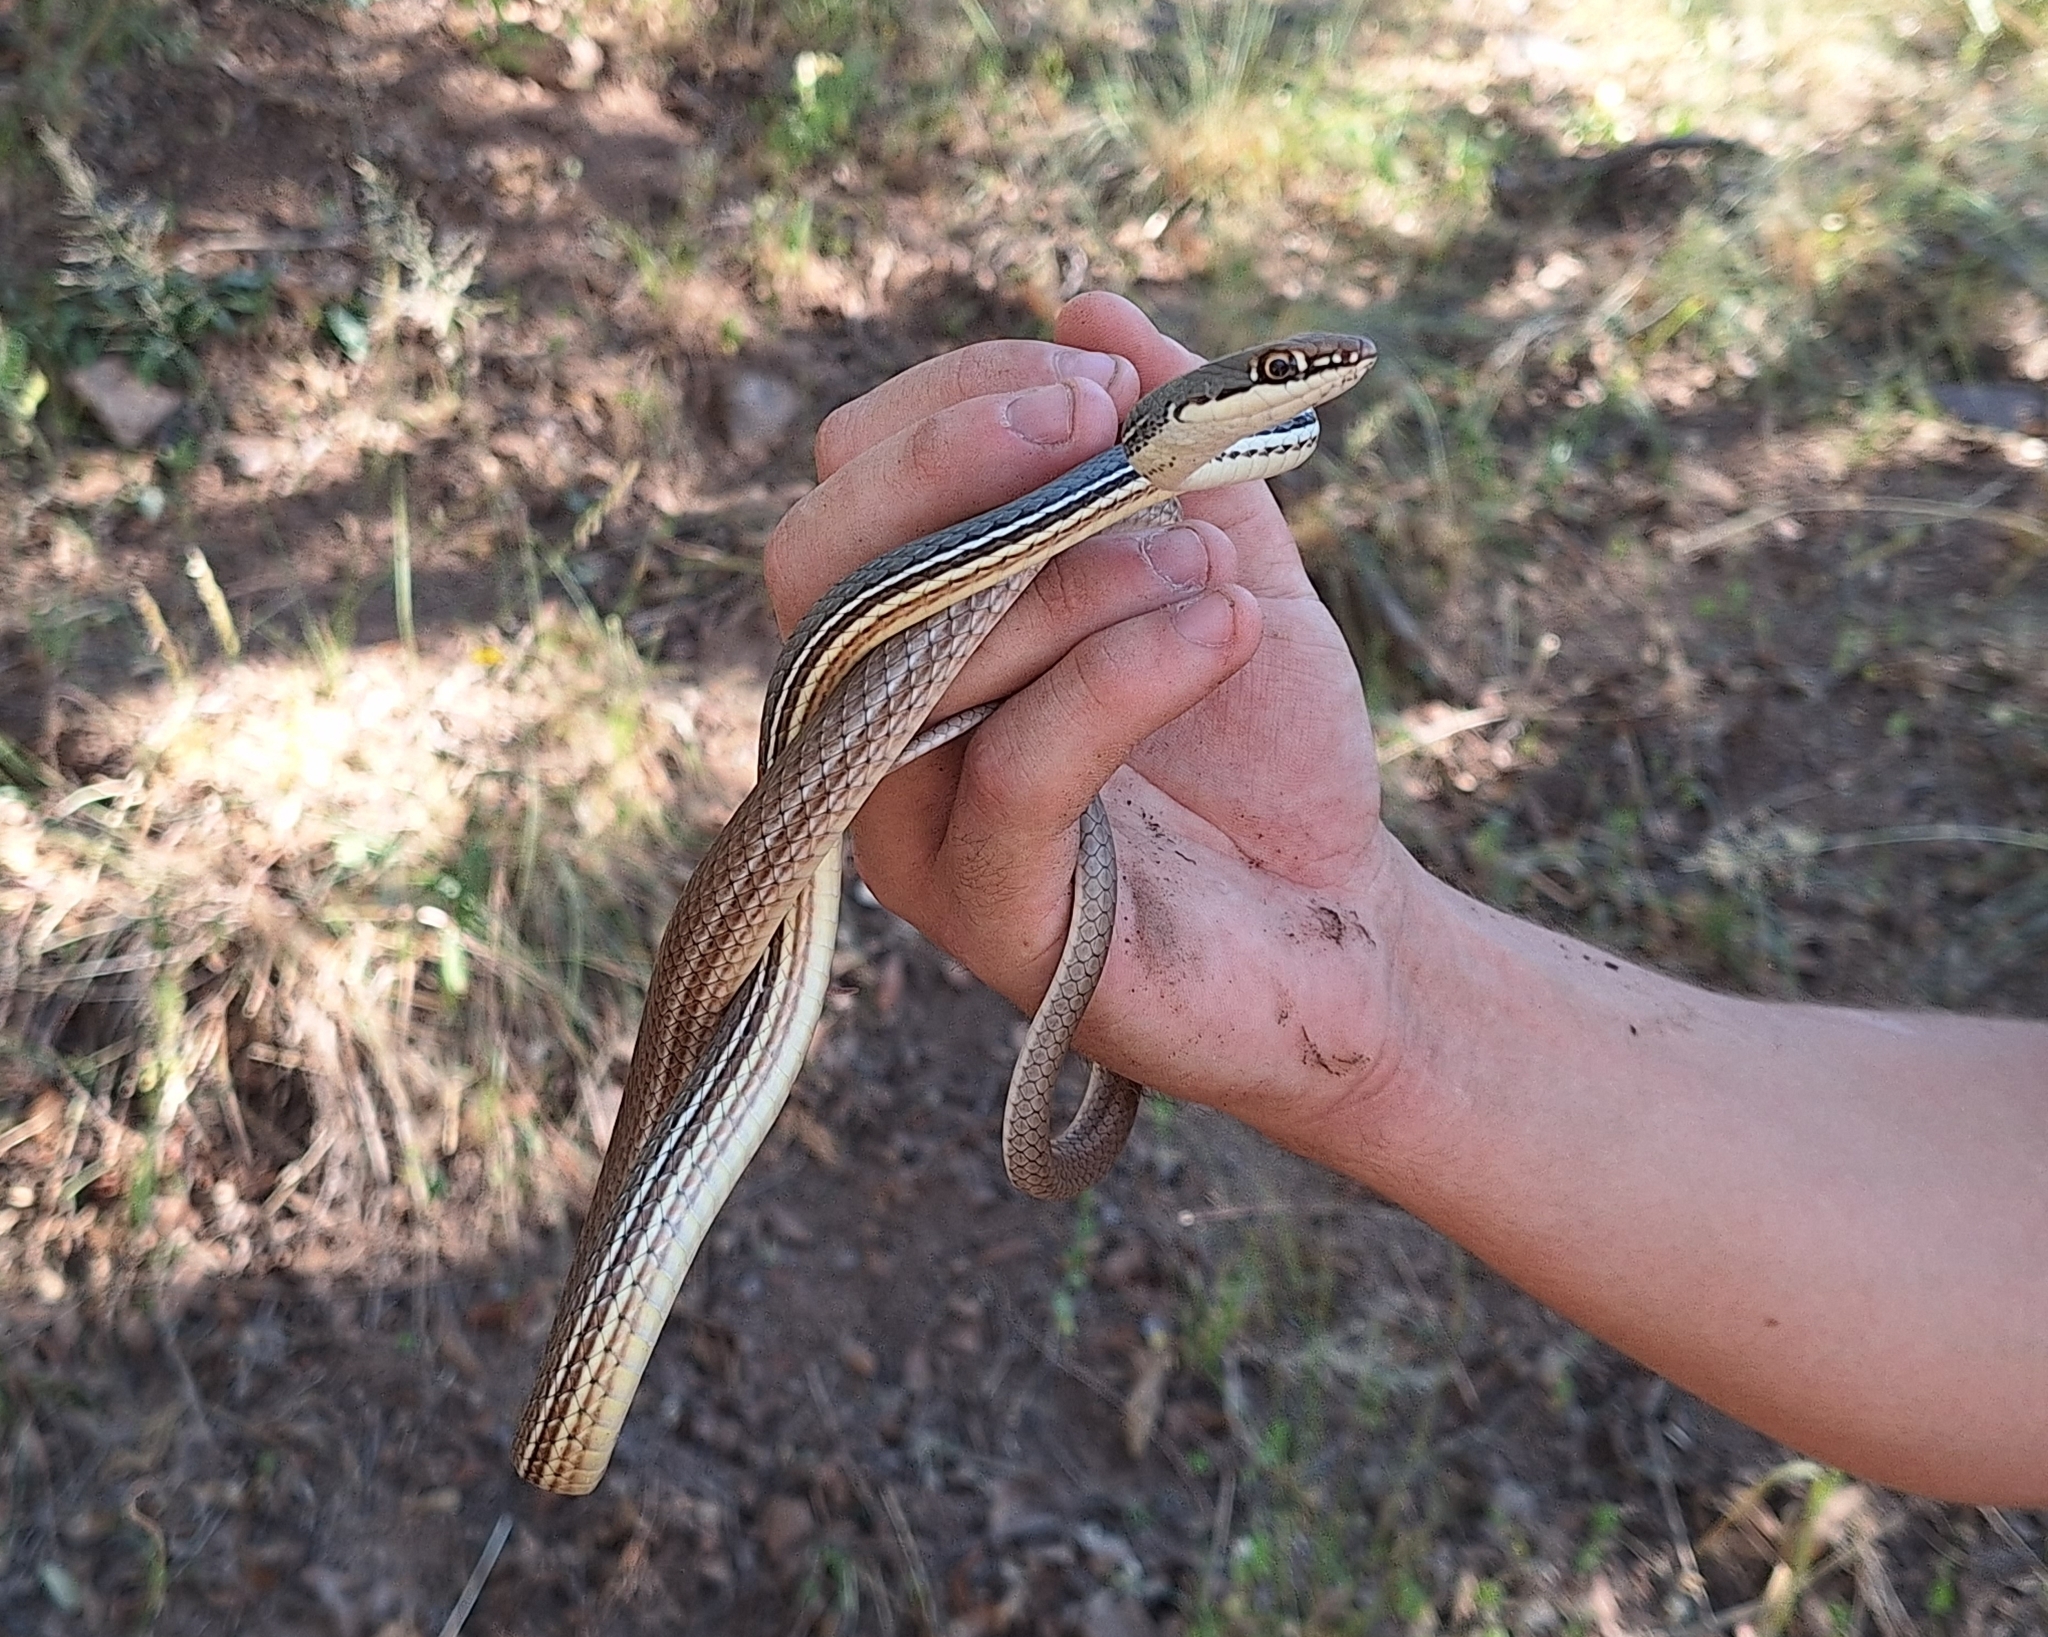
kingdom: Animalia
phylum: Chordata
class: Squamata
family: Colubridae
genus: Masticophis
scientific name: Masticophis bilineatus
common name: Sonoran whipsnake
